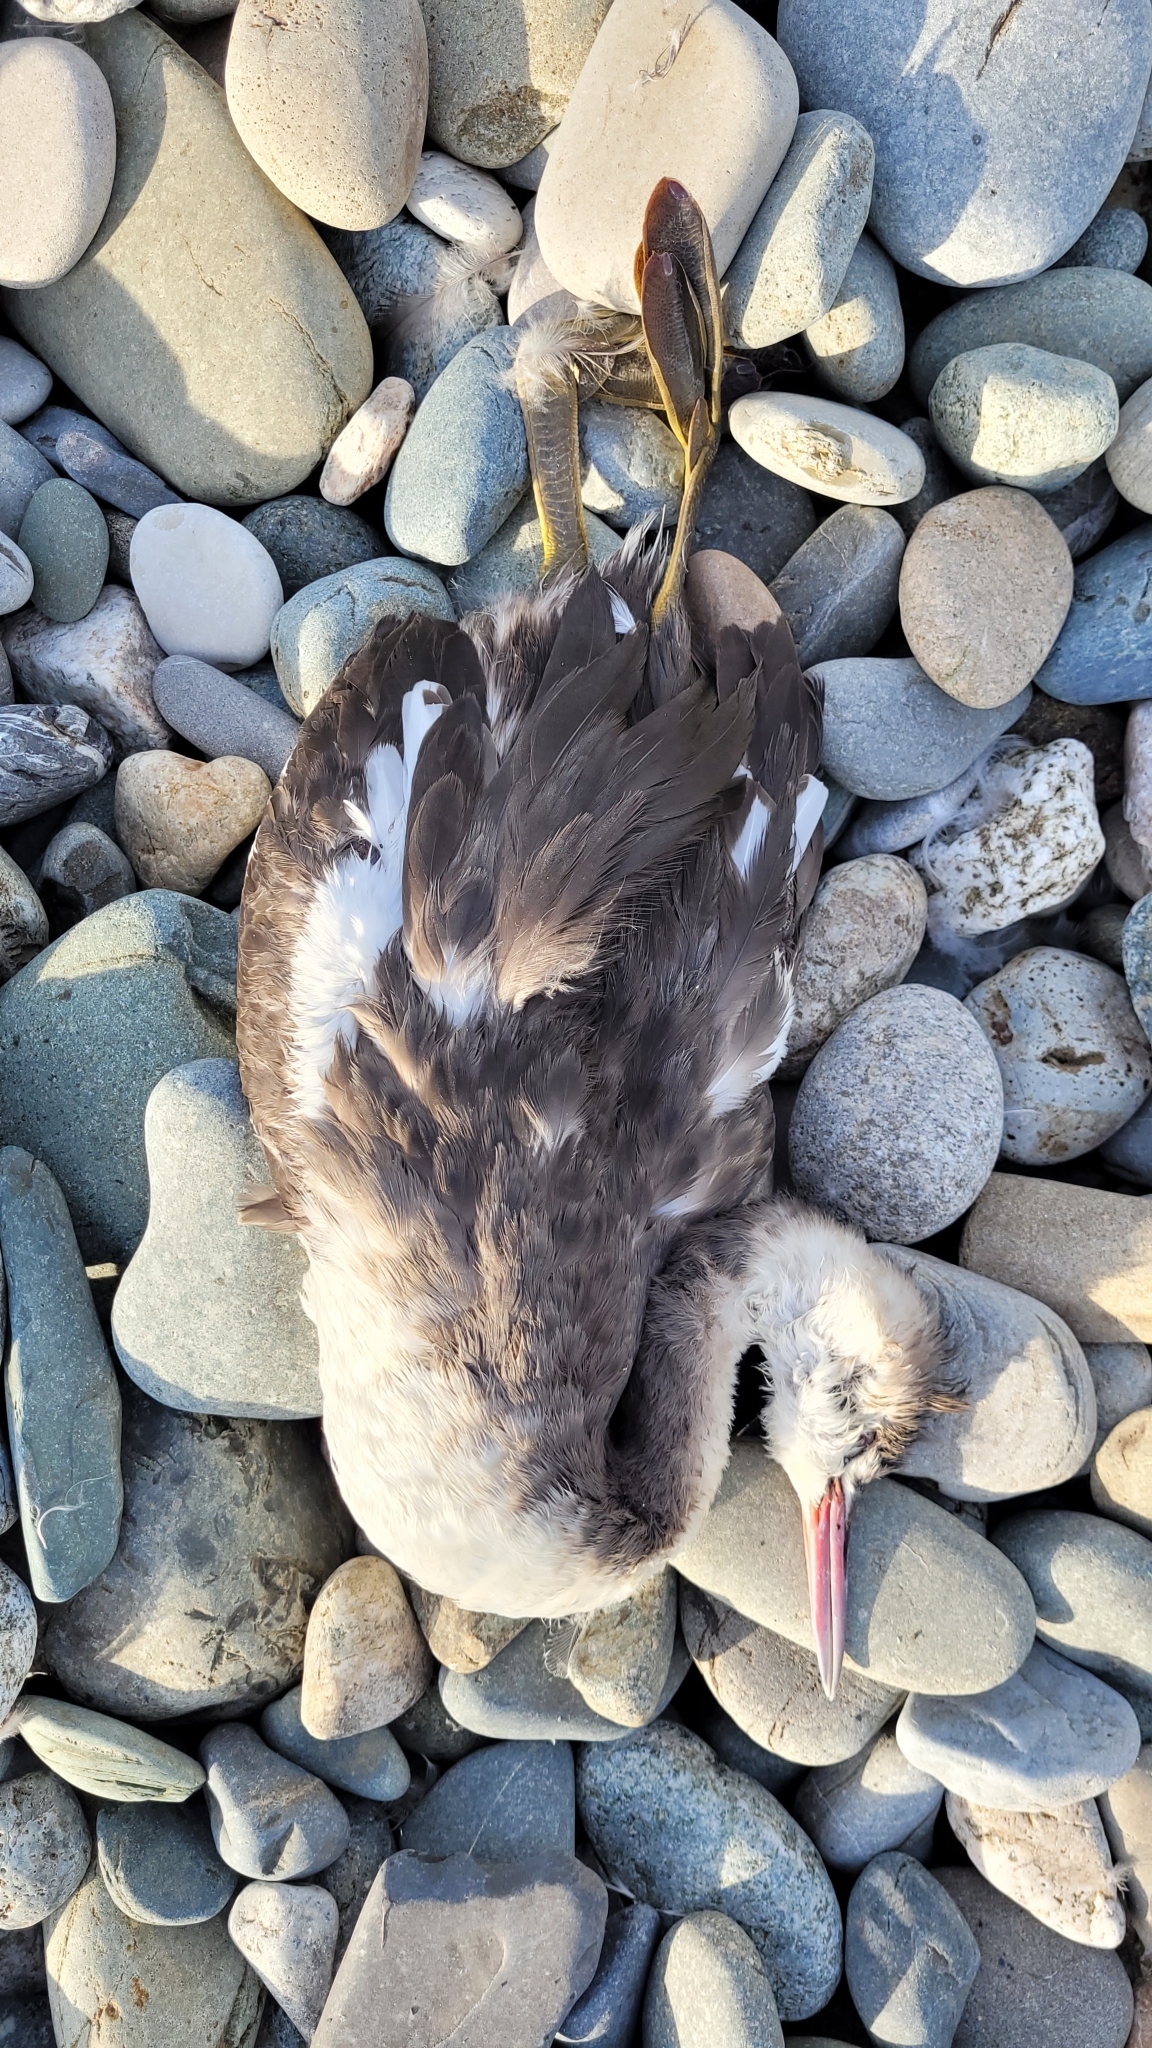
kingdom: Animalia
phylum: Chordata
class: Aves
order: Podicipediformes
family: Podicipedidae
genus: Podiceps
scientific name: Podiceps cristatus
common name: Great crested grebe
